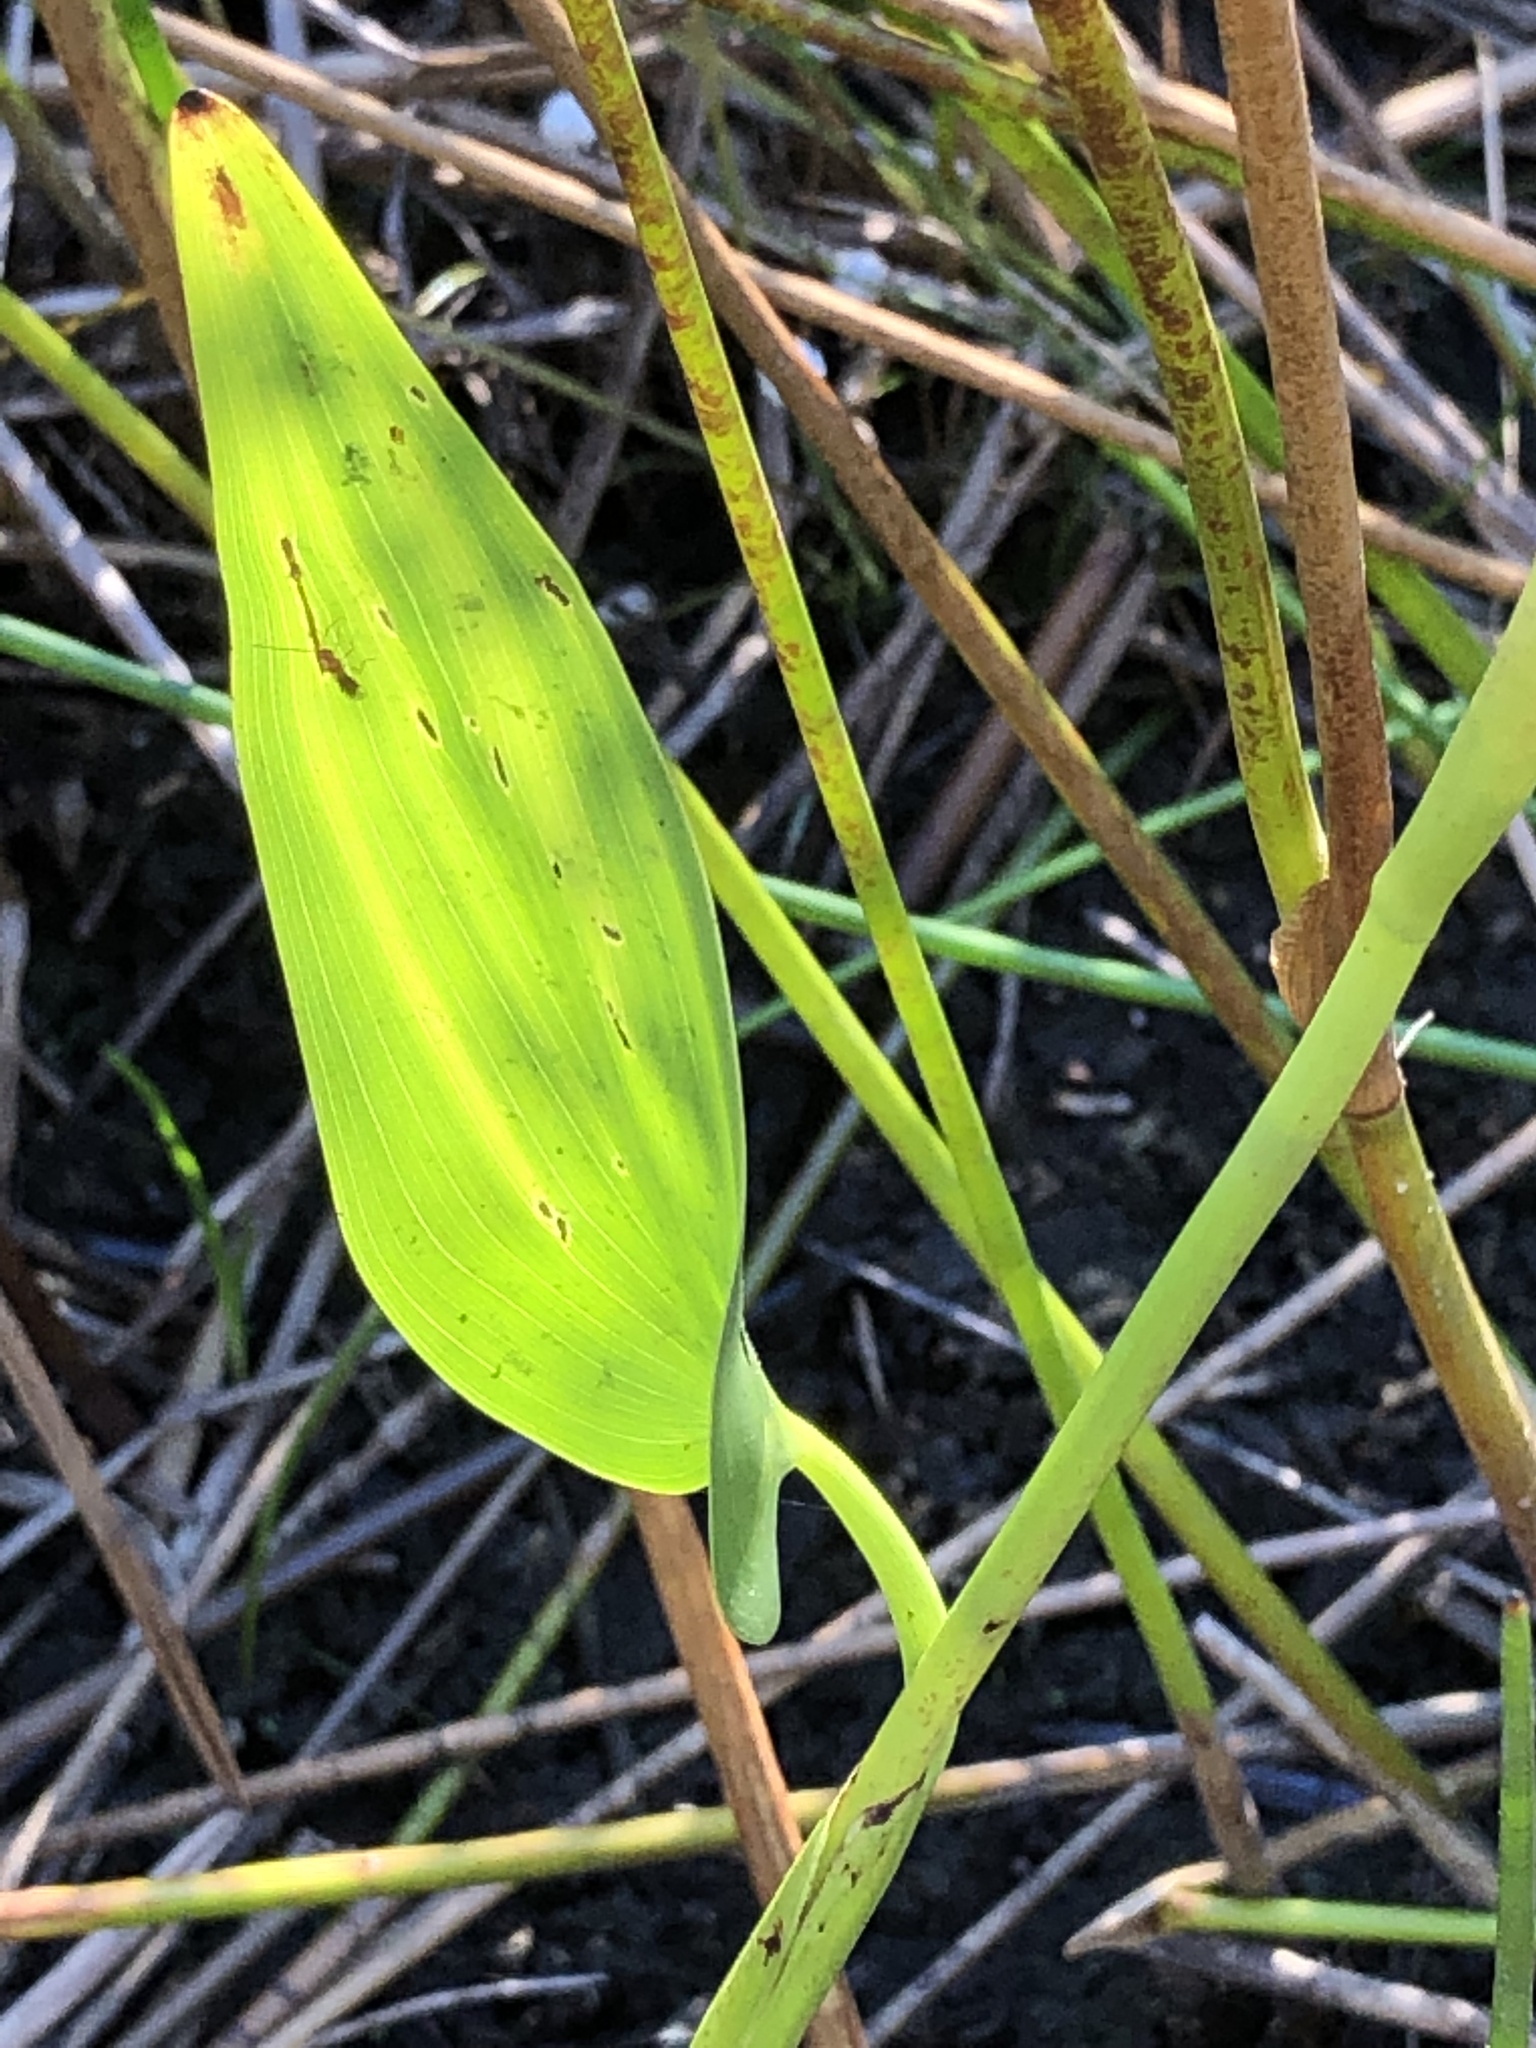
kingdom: Plantae
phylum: Tracheophyta
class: Liliopsida
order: Commelinales
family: Pontederiaceae
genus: Pontederia
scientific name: Pontederia cordata
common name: Pickerelweed
